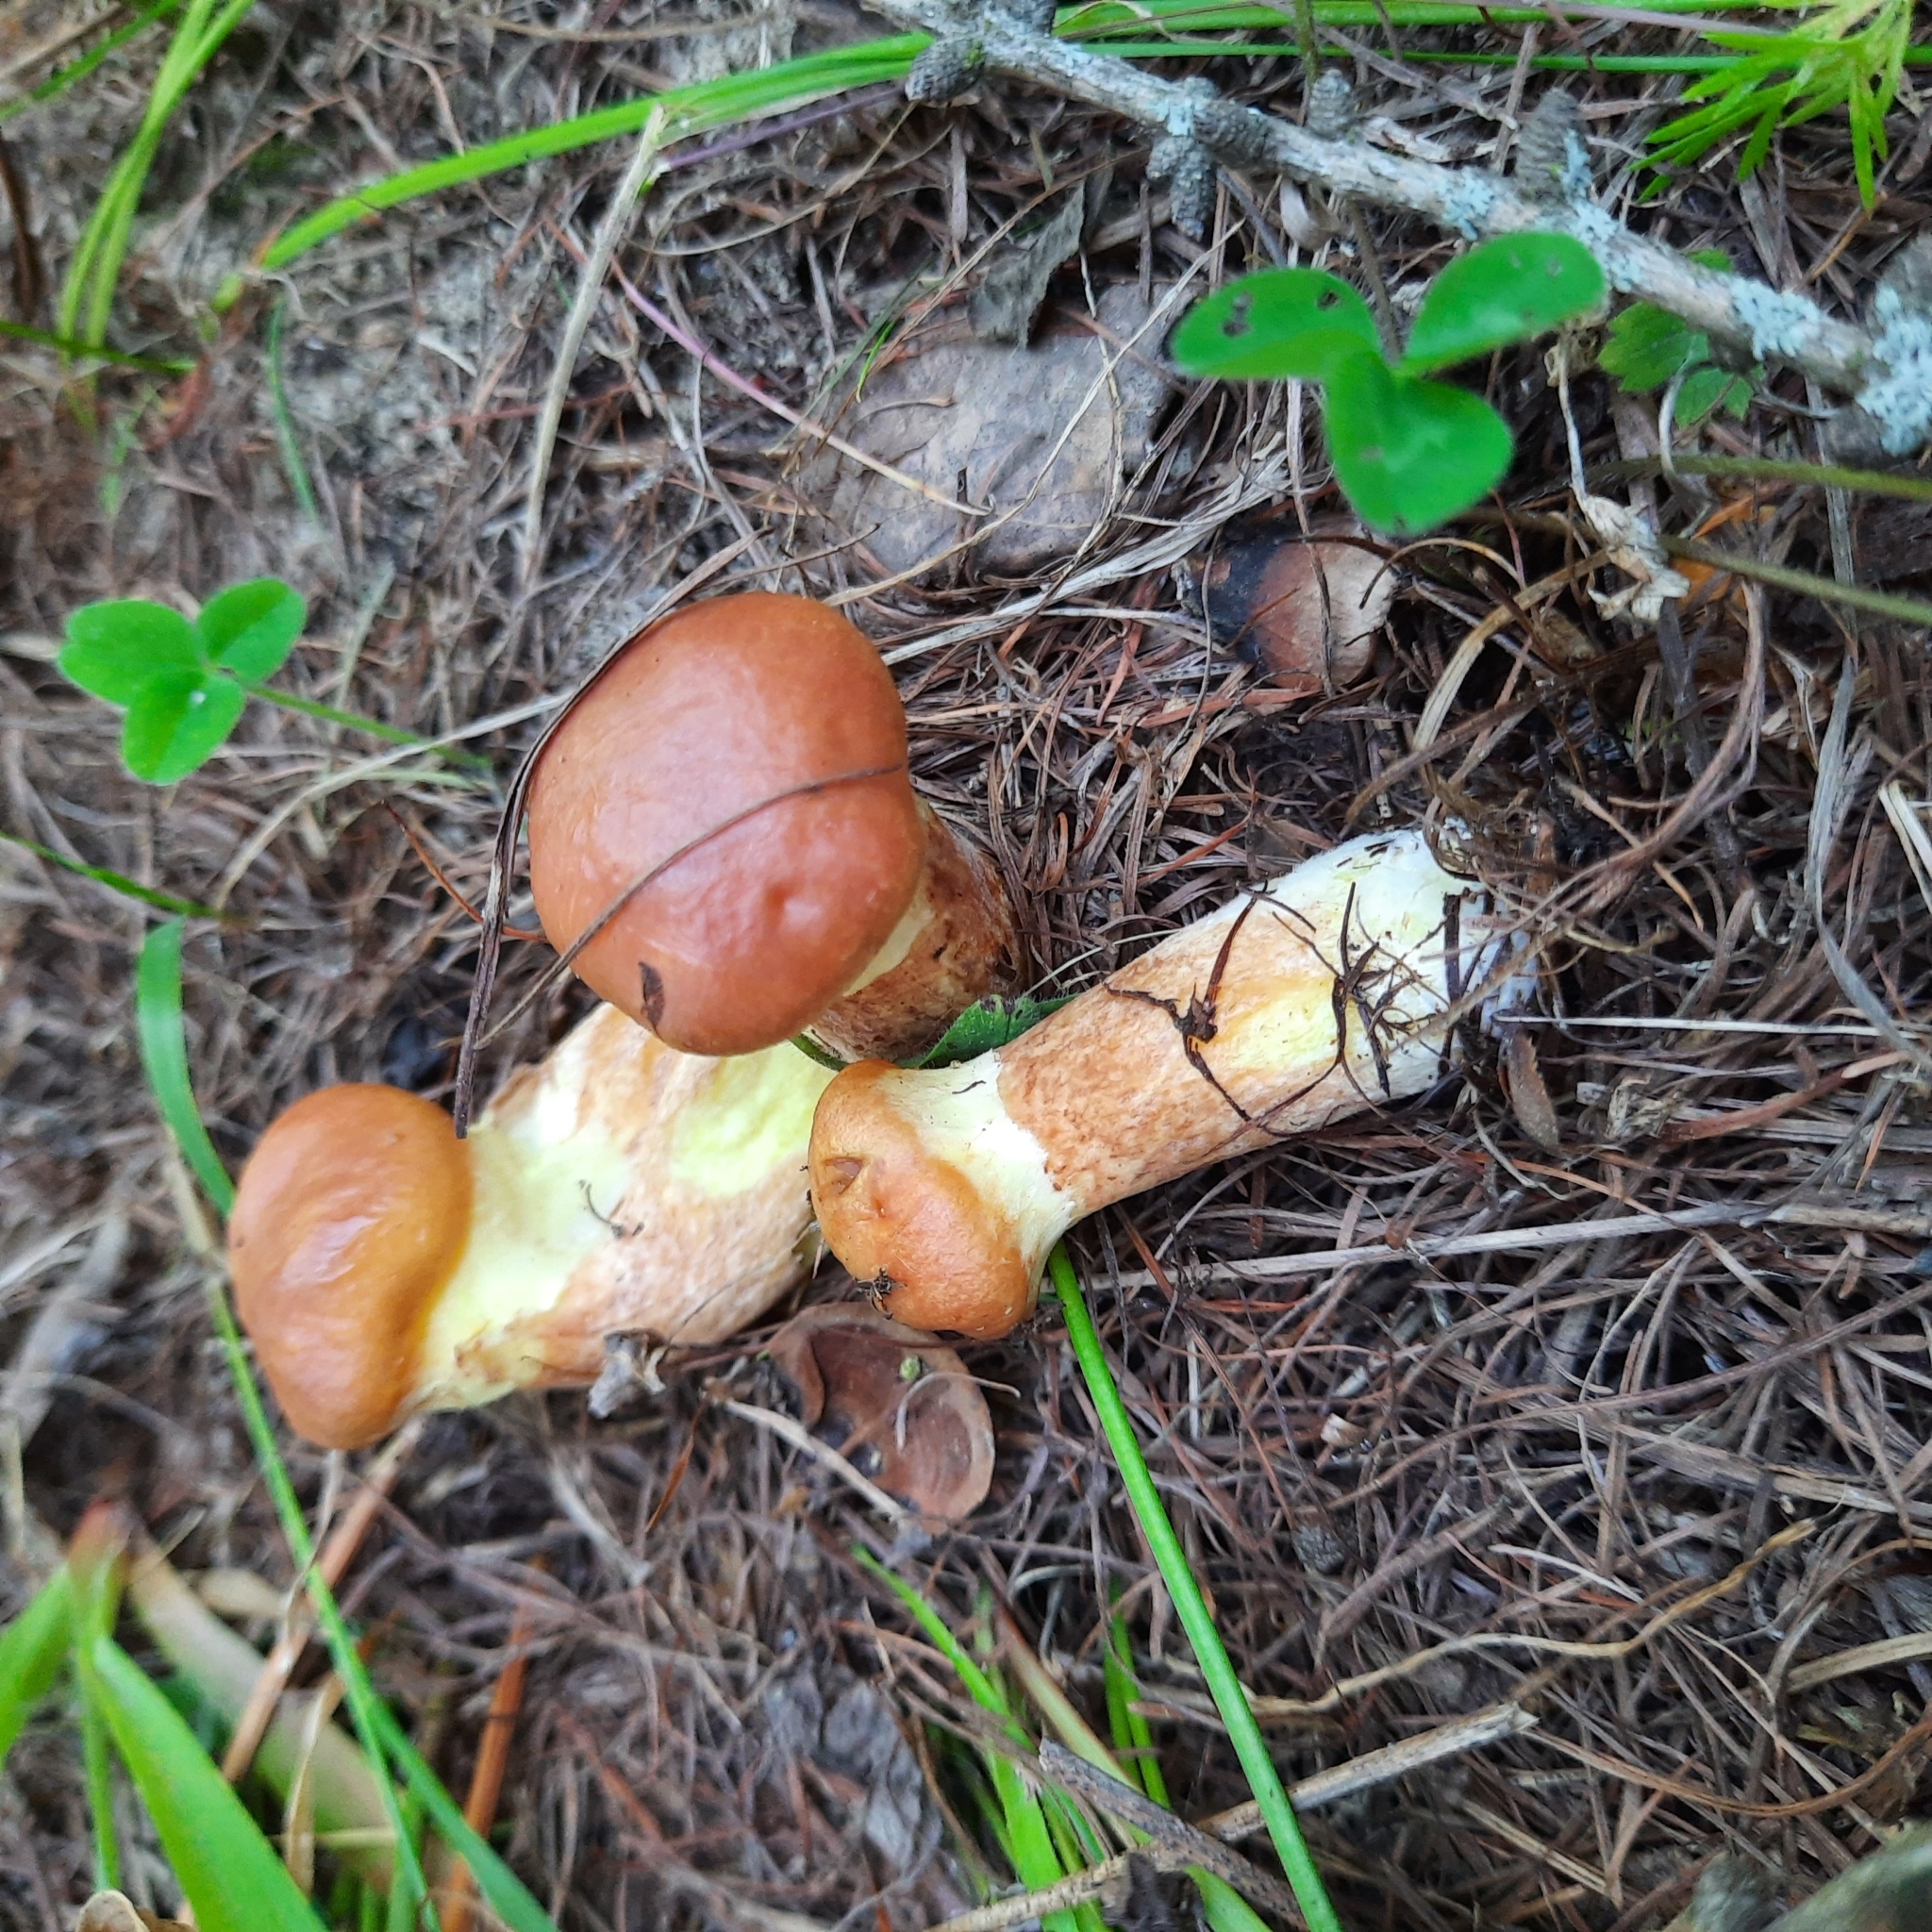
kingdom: Fungi
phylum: Basidiomycota
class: Agaricomycetes
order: Boletales
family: Suillaceae
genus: Suillus
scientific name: Suillus grevillei
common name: Larch bolete
